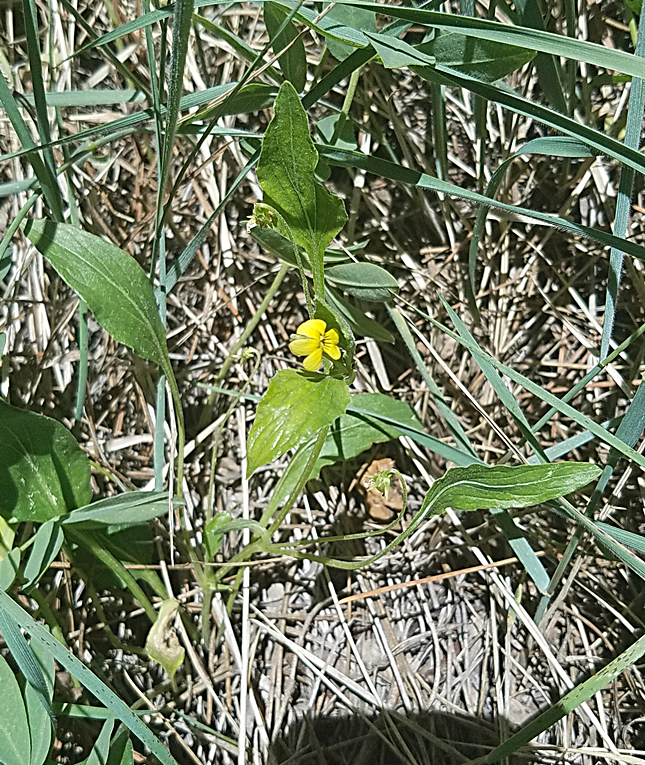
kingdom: Plantae
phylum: Tracheophyta
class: Magnoliopsida
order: Malpighiales
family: Violaceae
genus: Viola
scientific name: Viola nuttallii
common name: Yellow prairie violet
